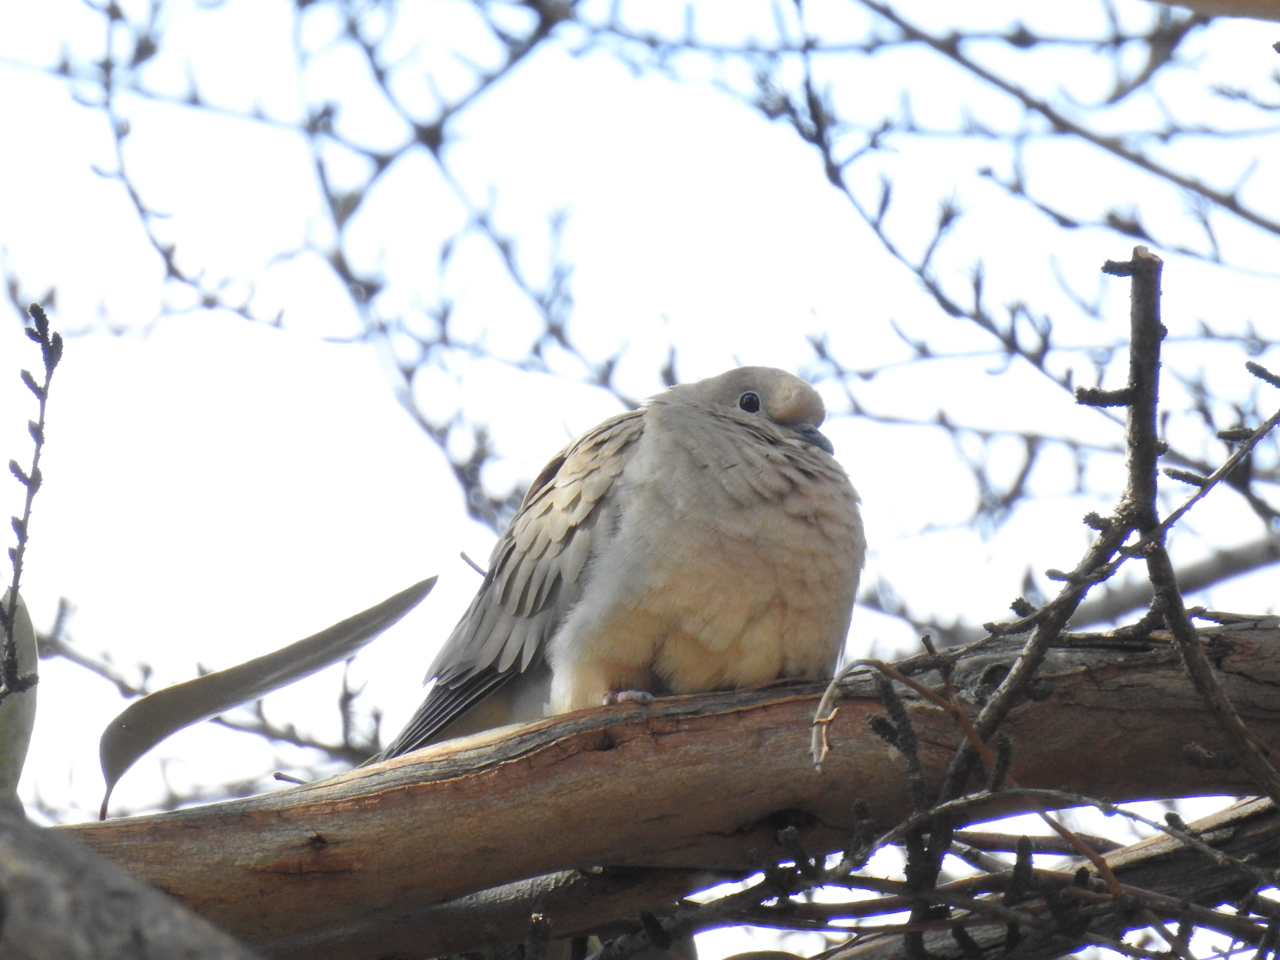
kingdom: Animalia
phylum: Chordata
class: Aves
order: Columbiformes
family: Columbidae
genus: Zenaida
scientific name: Zenaida macroura
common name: Mourning dove
